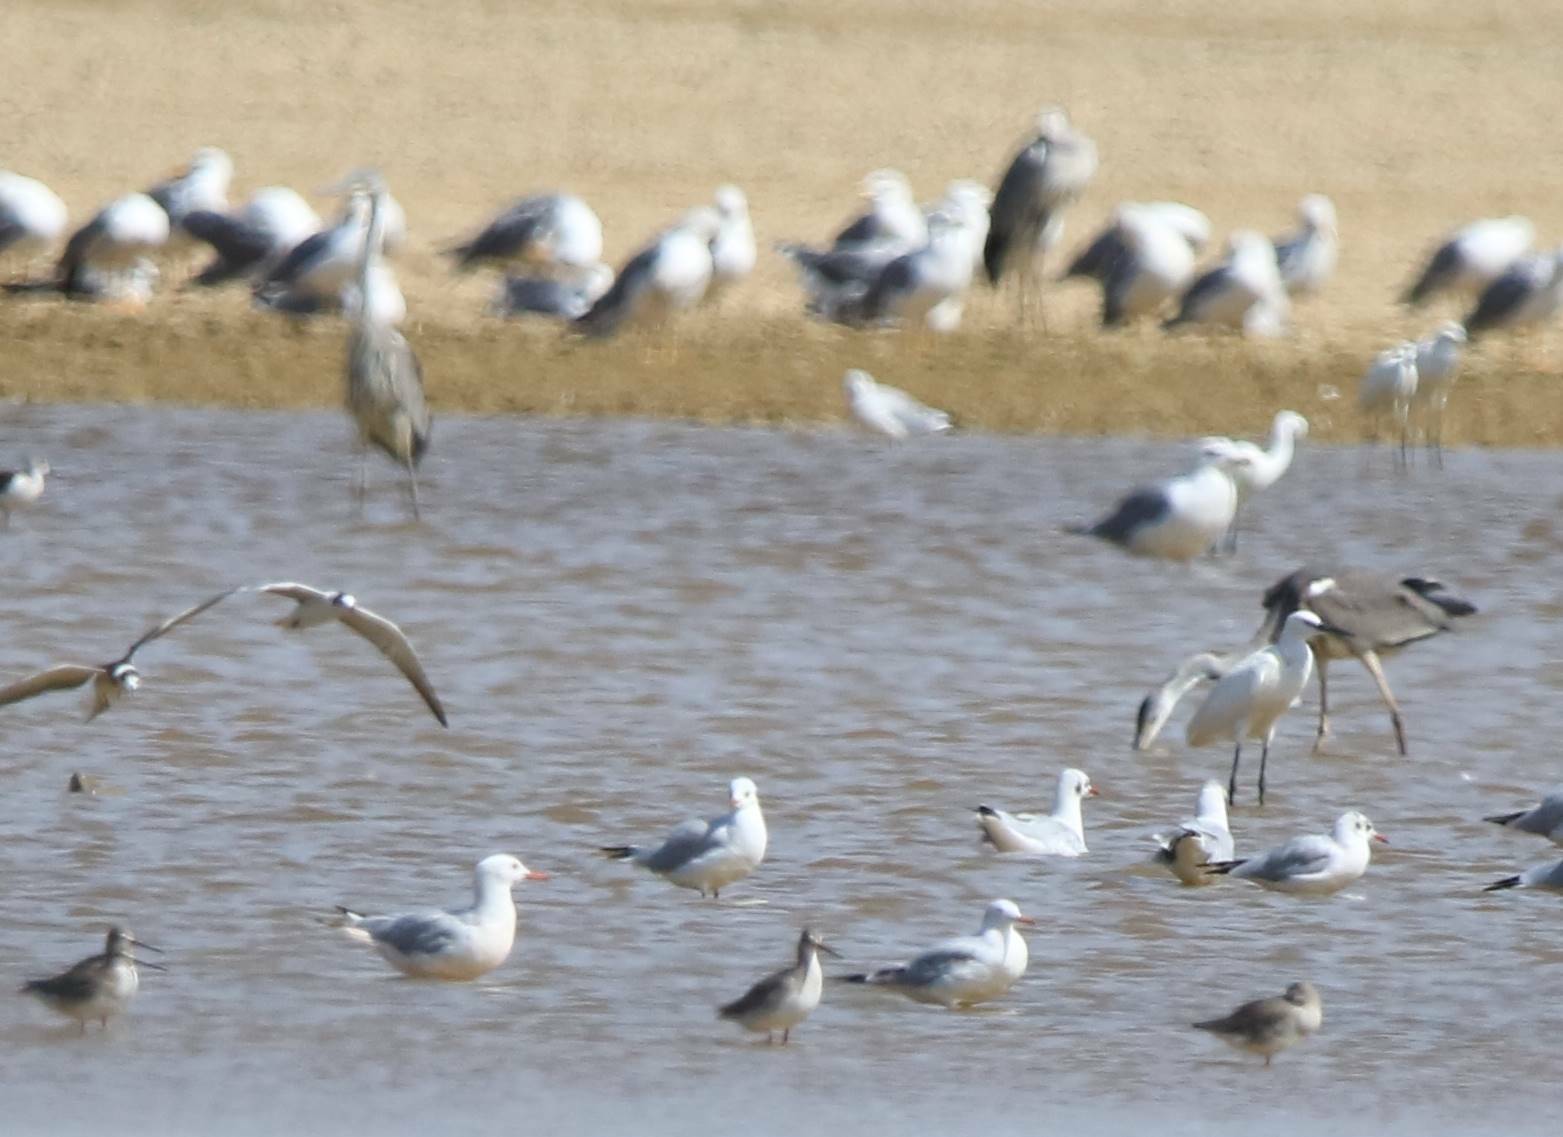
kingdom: Animalia
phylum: Chordata
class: Aves
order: Charadriiformes
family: Laridae
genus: Chroicocephalus
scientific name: Chroicocephalus genei
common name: Slender-billed gull
